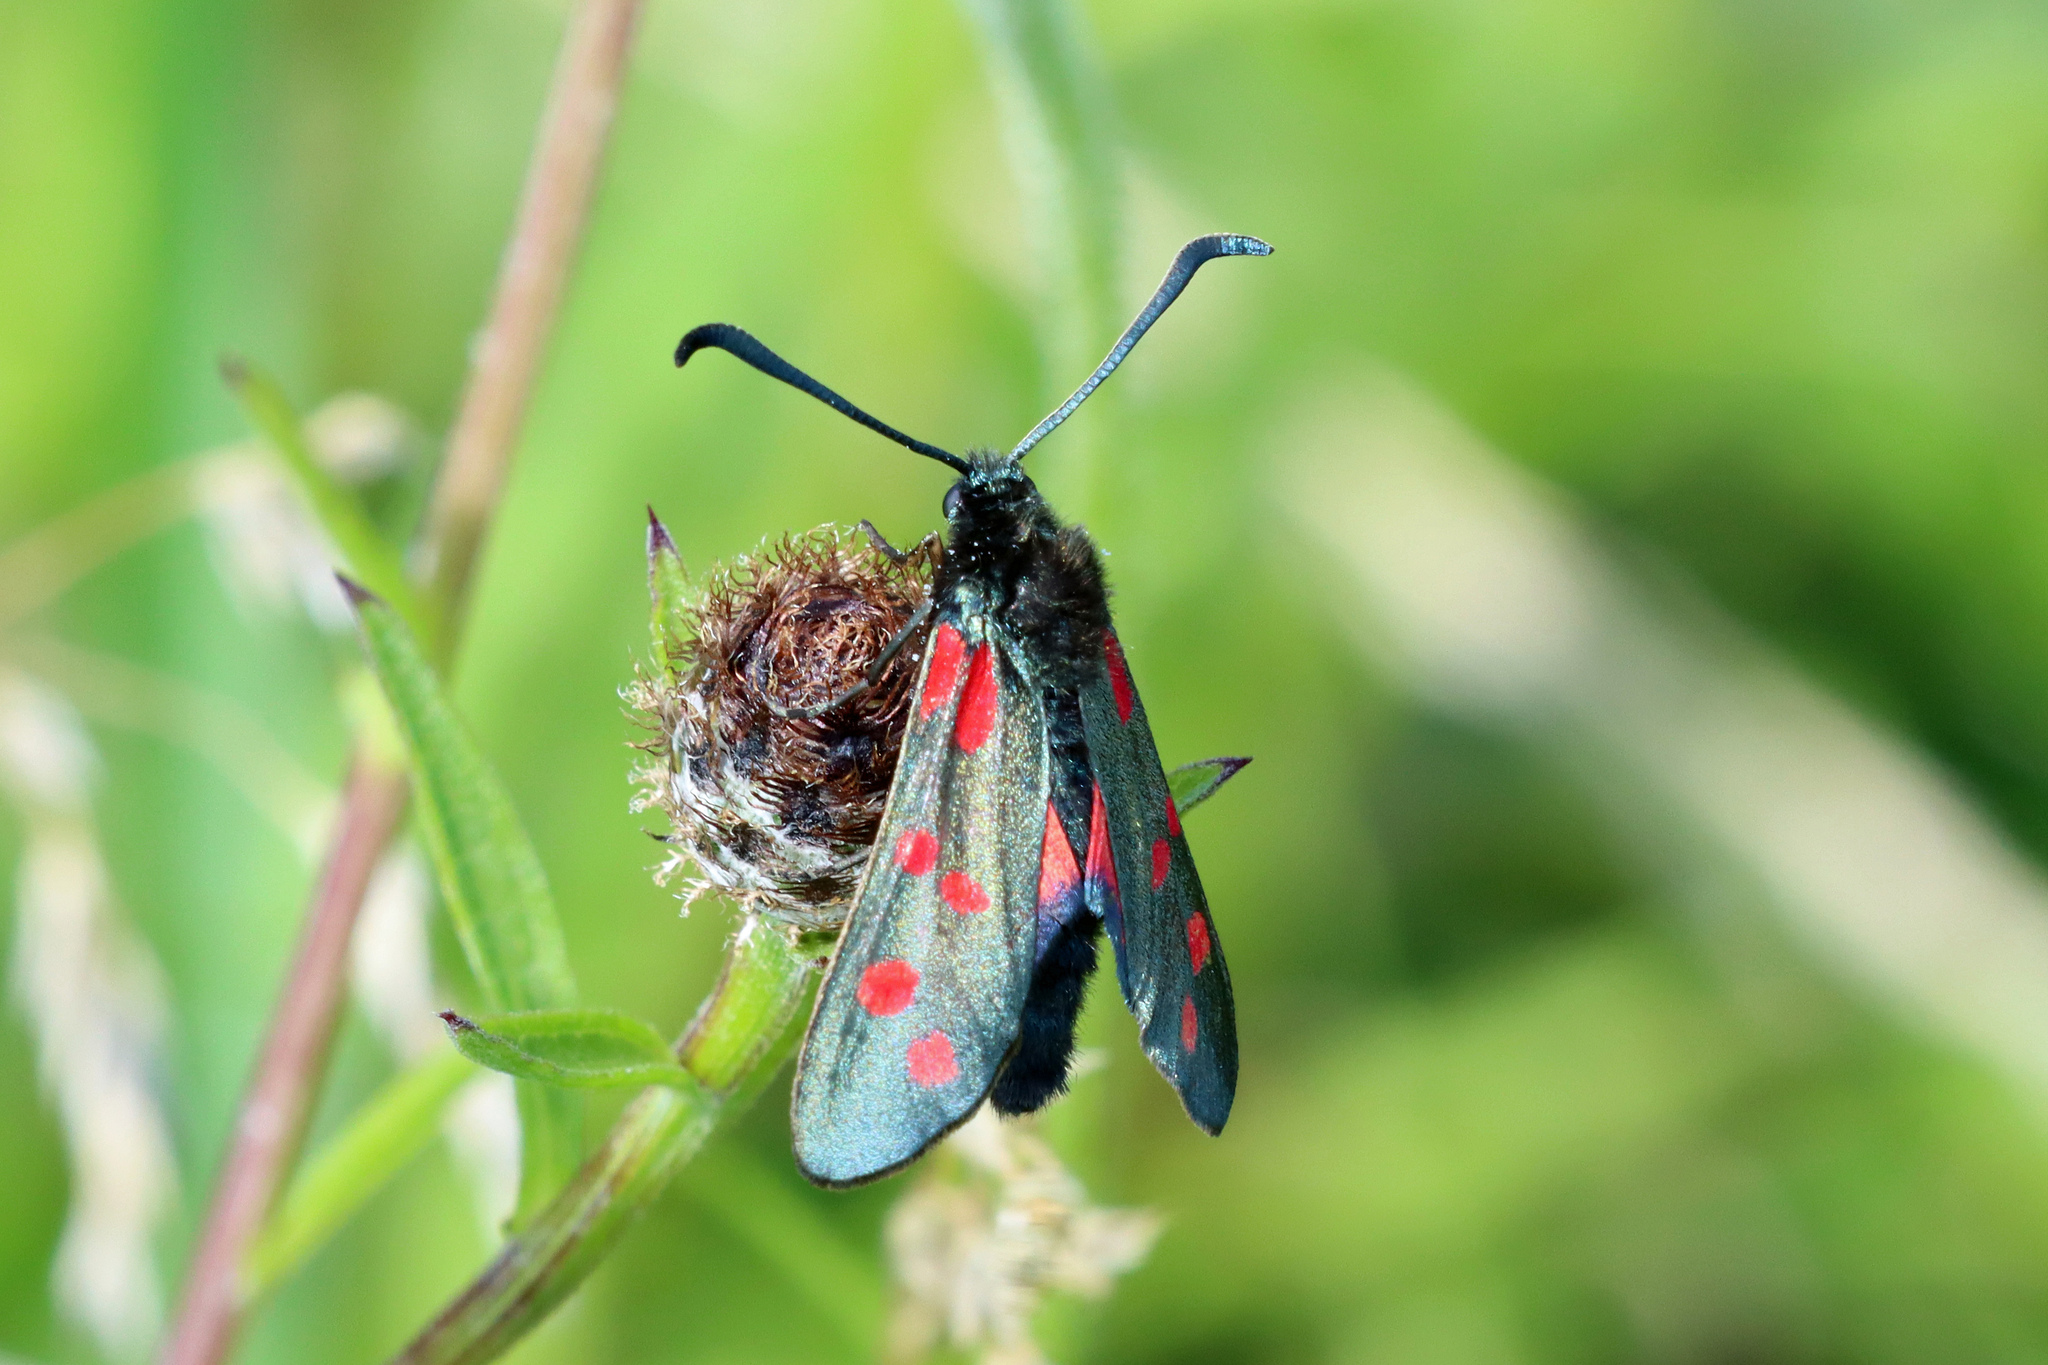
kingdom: Animalia
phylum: Arthropoda
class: Insecta
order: Lepidoptera
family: Zygaenidae
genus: Zygaena
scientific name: Zygaena filipendulae
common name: Six-spot burnet
